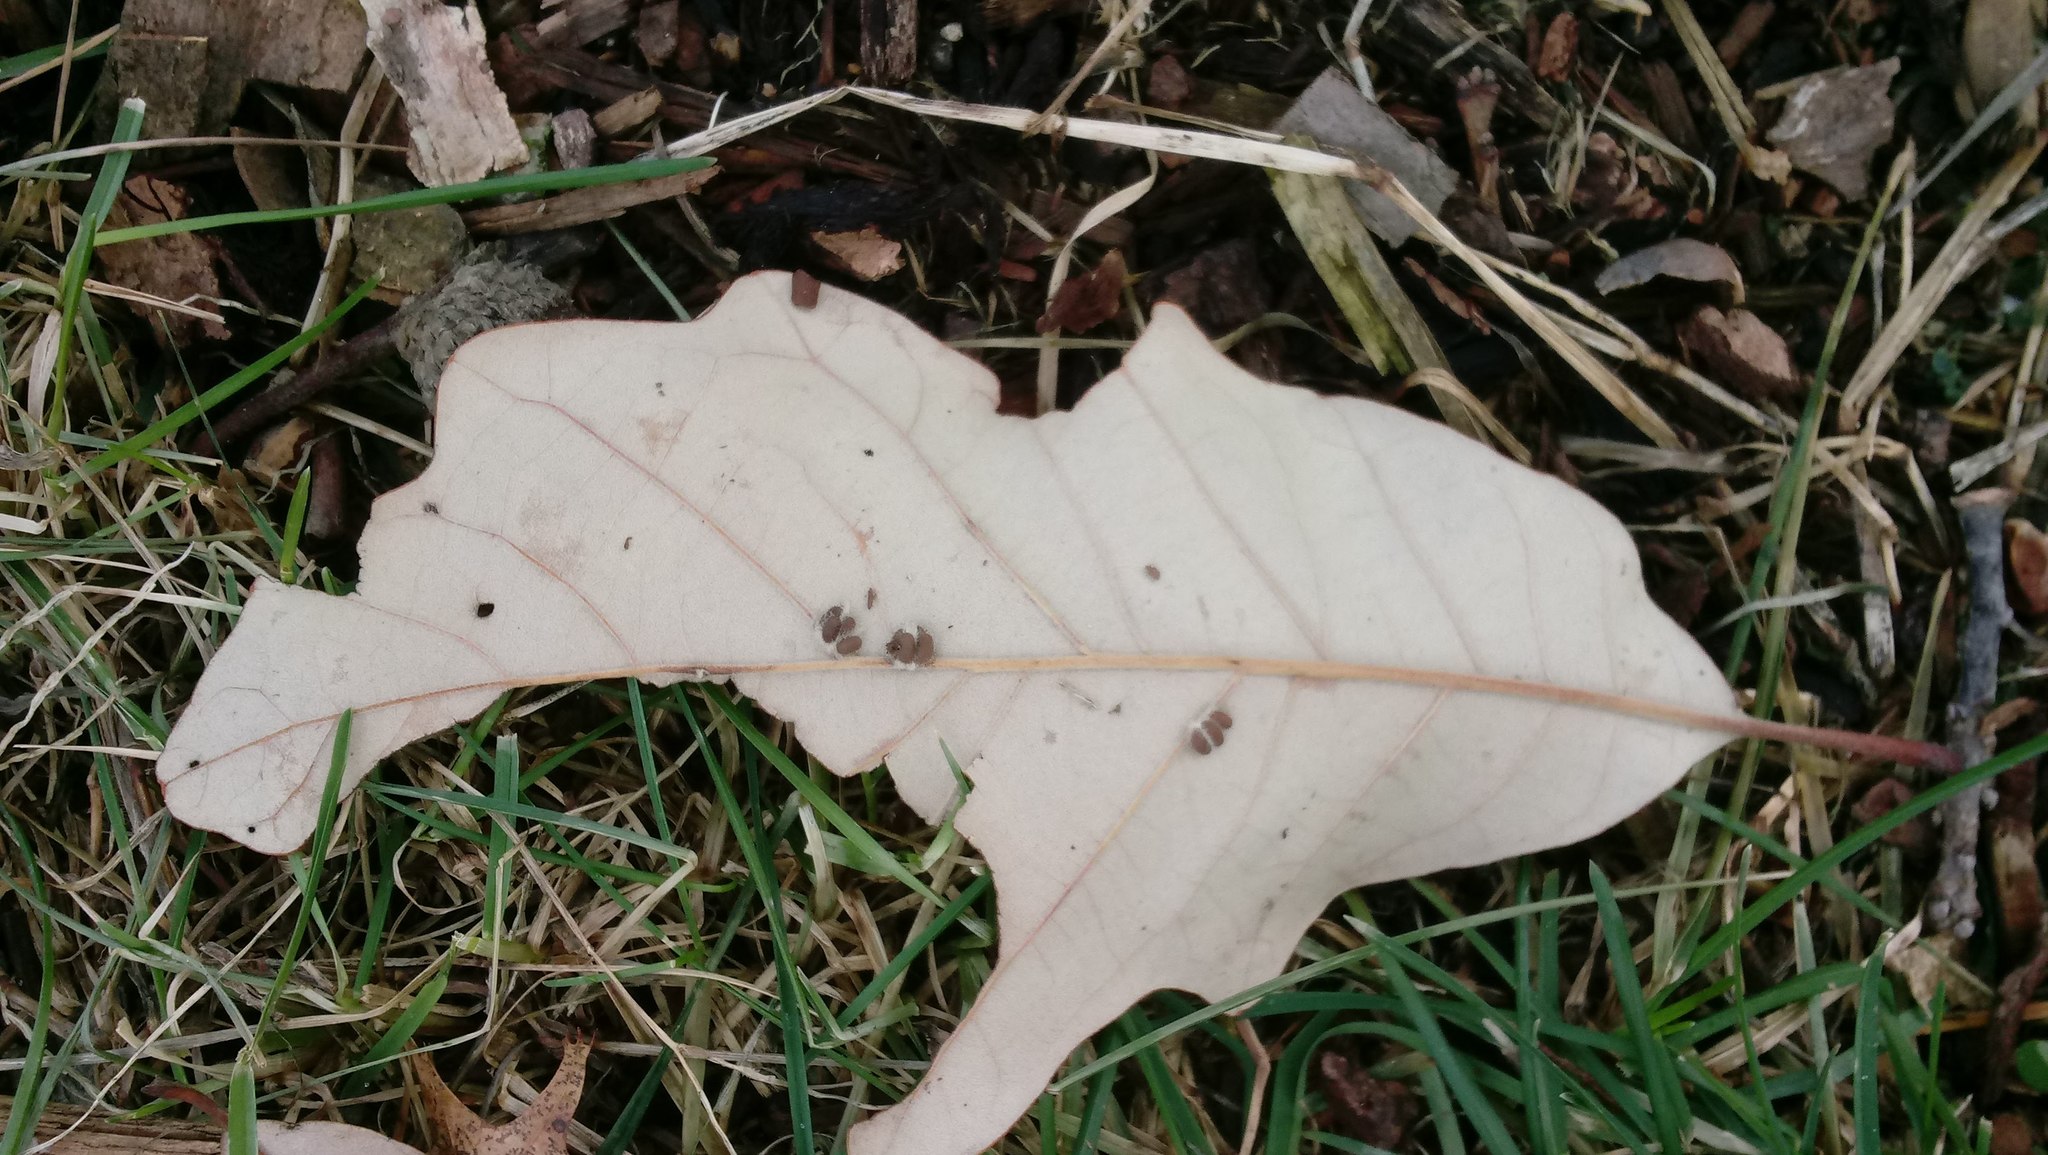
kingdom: Animalia
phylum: Arthropoda
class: Insecta
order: Hymenoptera
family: Cynipidae
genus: Andricus
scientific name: Andricus Druon ignotum
